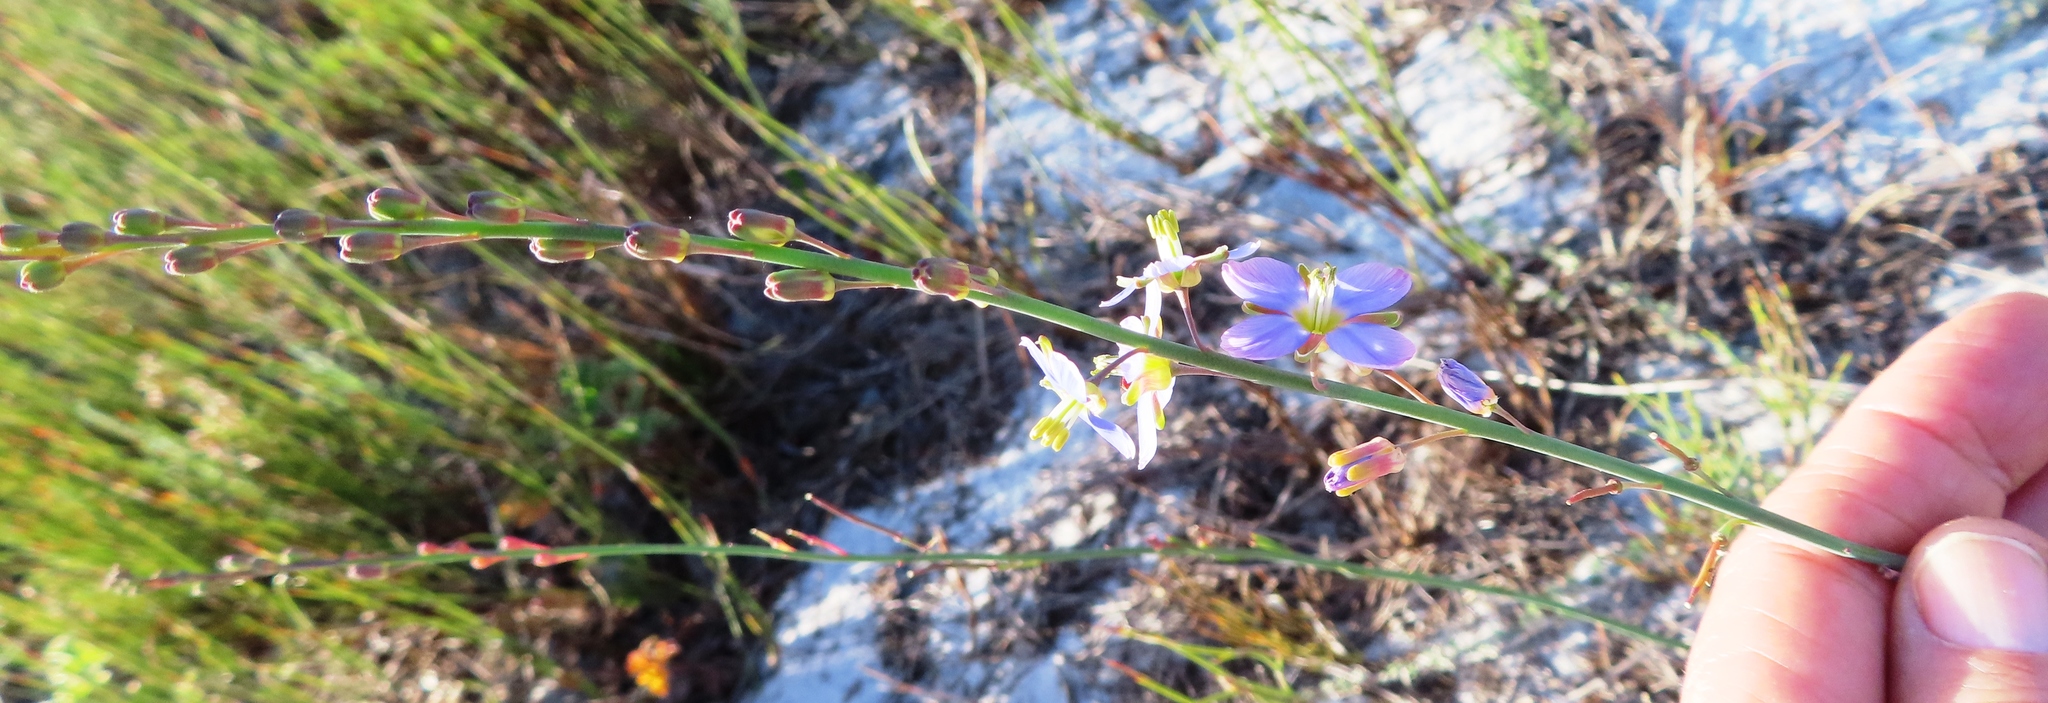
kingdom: Plantae
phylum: Tracheophyta
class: Magnoliopsida
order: Brassicales
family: Brassicaceae
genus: Heliophila
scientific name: Heliophila linearis
